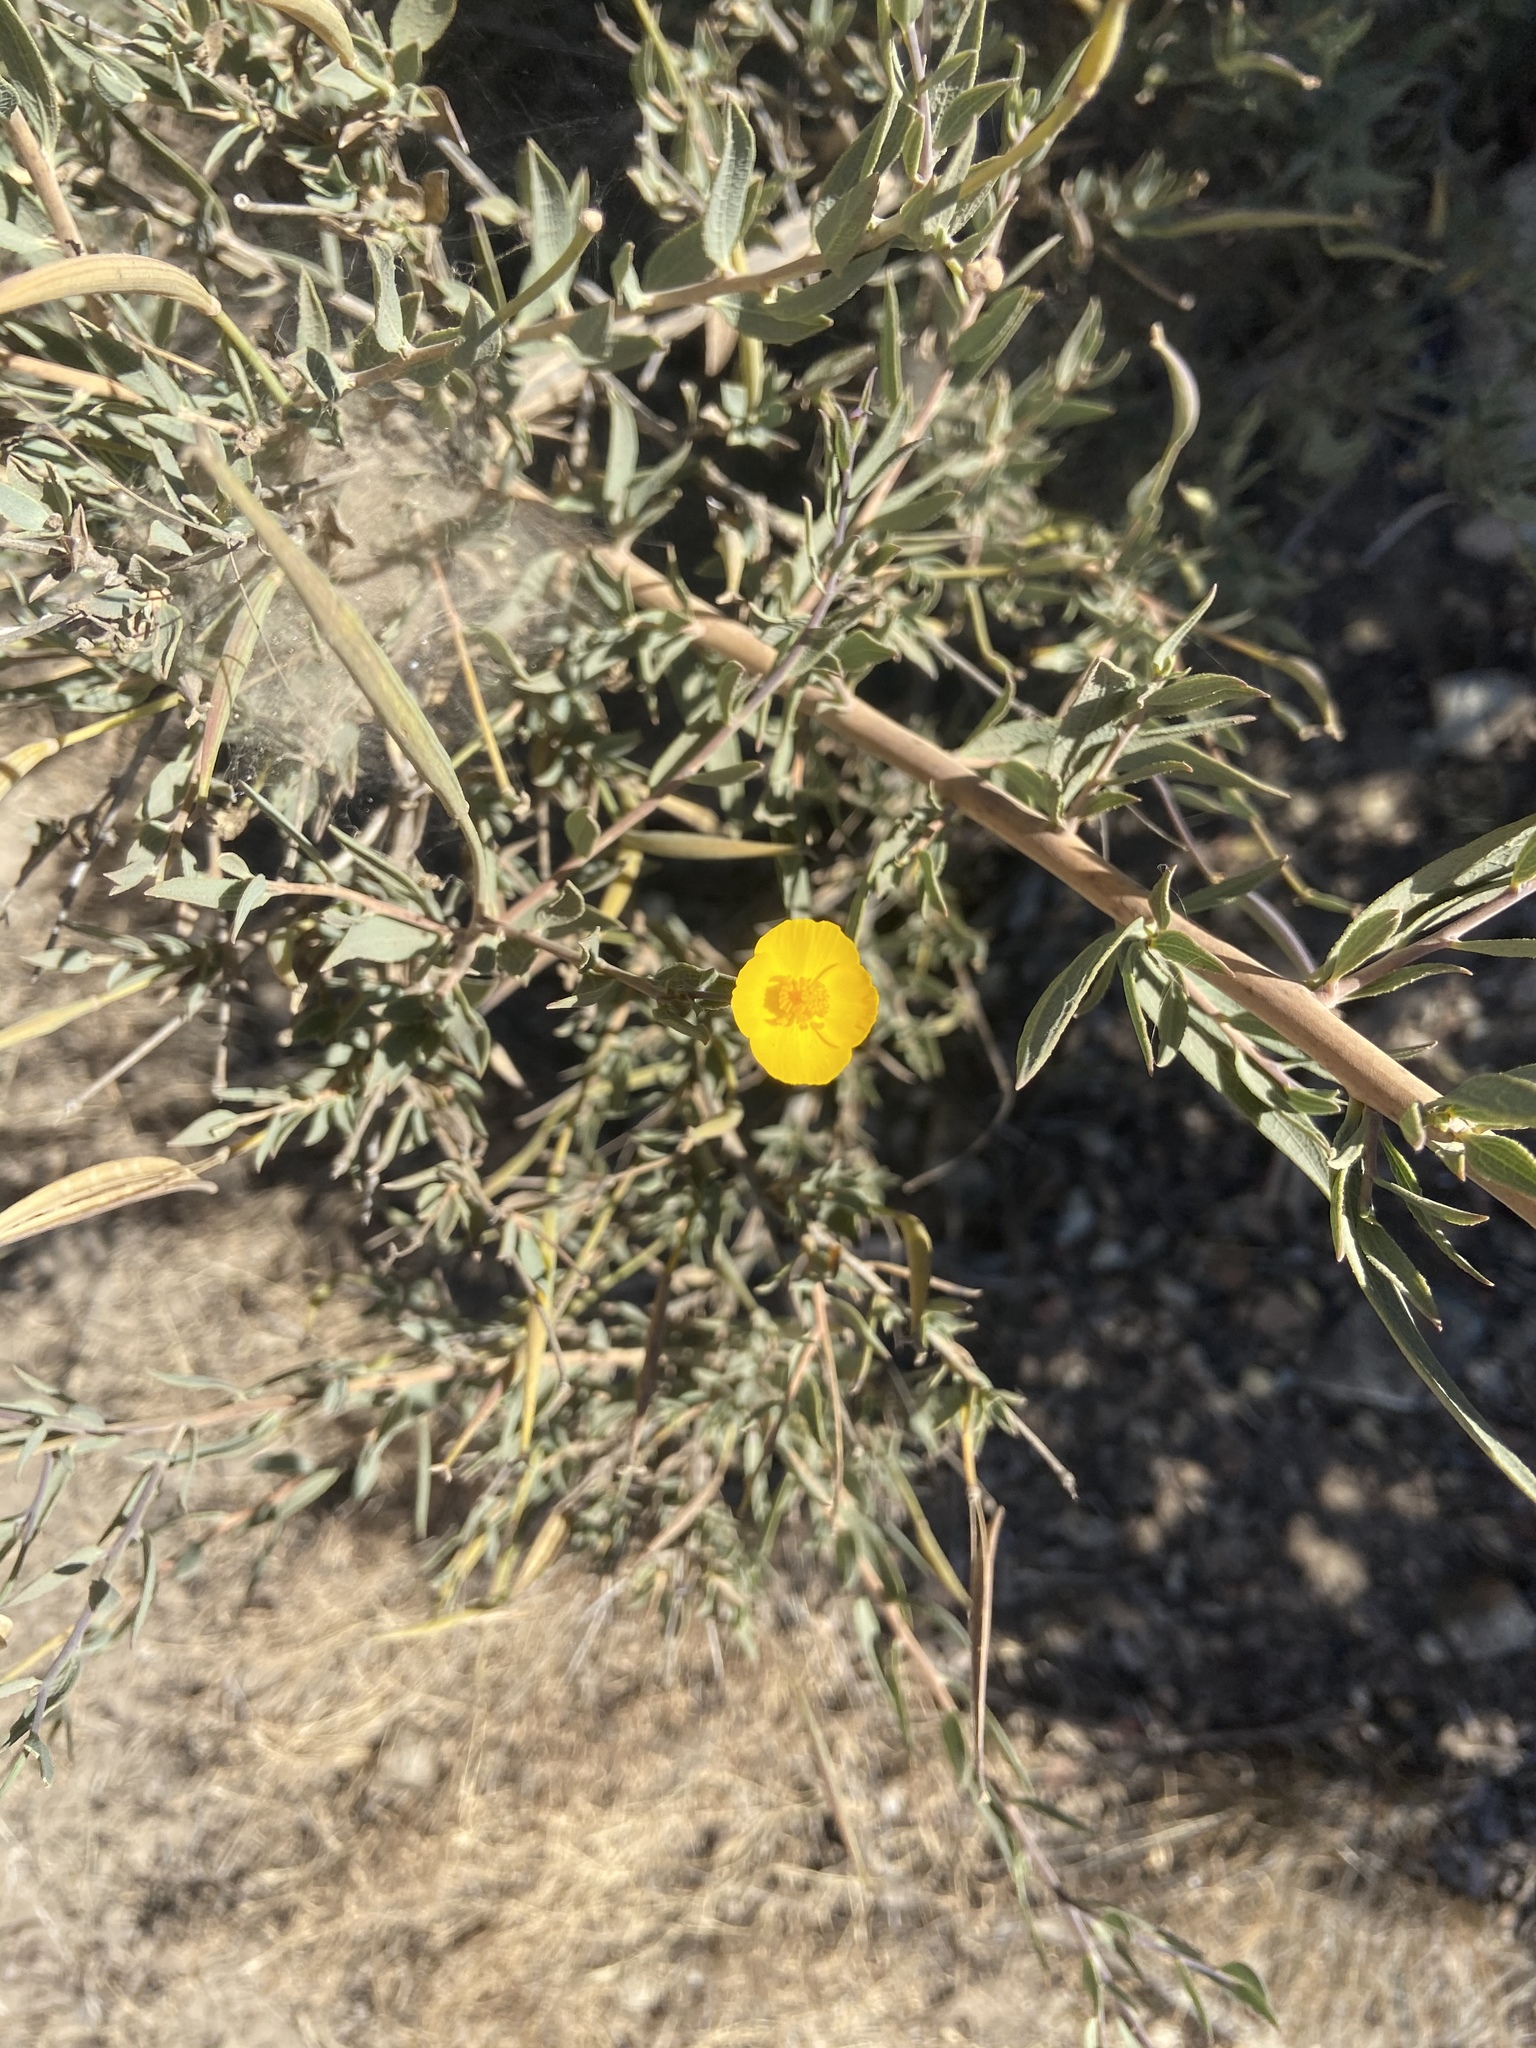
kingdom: Plantae
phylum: Tracheophyta
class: Magnoliopsida
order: Ranunculales
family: Papaveraceae
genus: Dendromecon
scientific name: Dendromecon rigida
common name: Tree poppy
